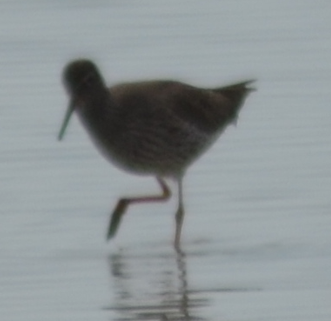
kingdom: Animalia
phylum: Chordata
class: Aves
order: Charadriiformes
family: Scolopacidae
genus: Tringa
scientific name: Tringa totanus
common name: Common redshank
